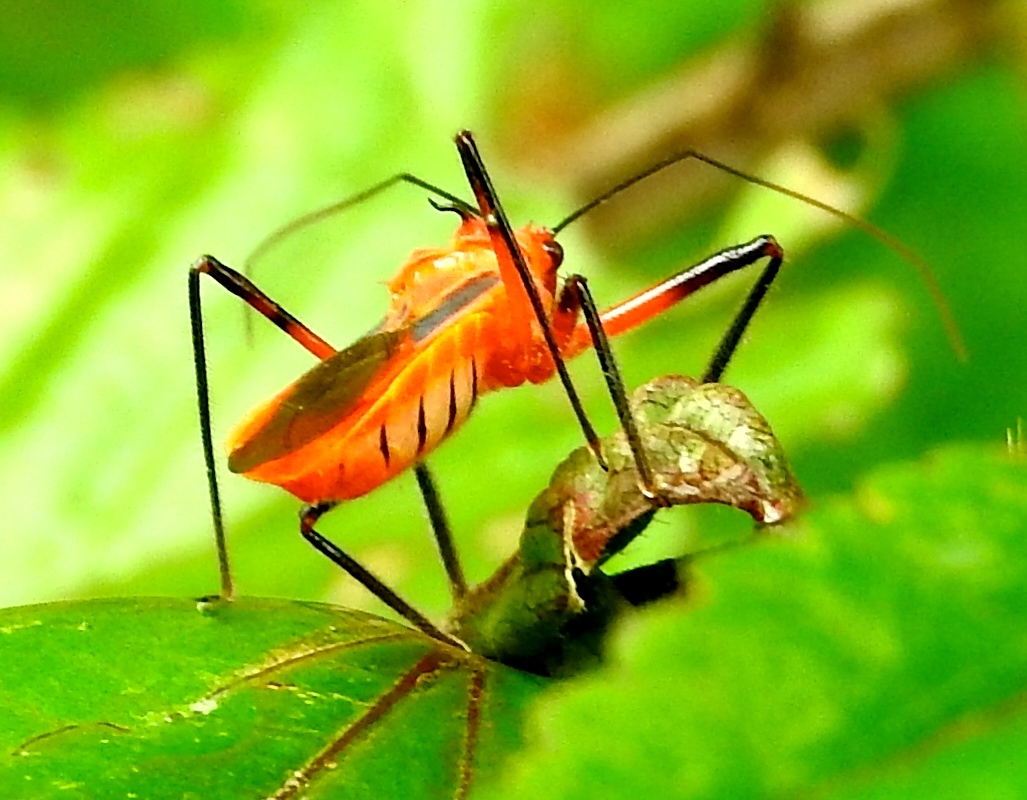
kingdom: Animalia
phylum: Arthropoda
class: Insecta
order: Hemiptera
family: Reduviidae
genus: Repipta
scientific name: Repipta taurus
